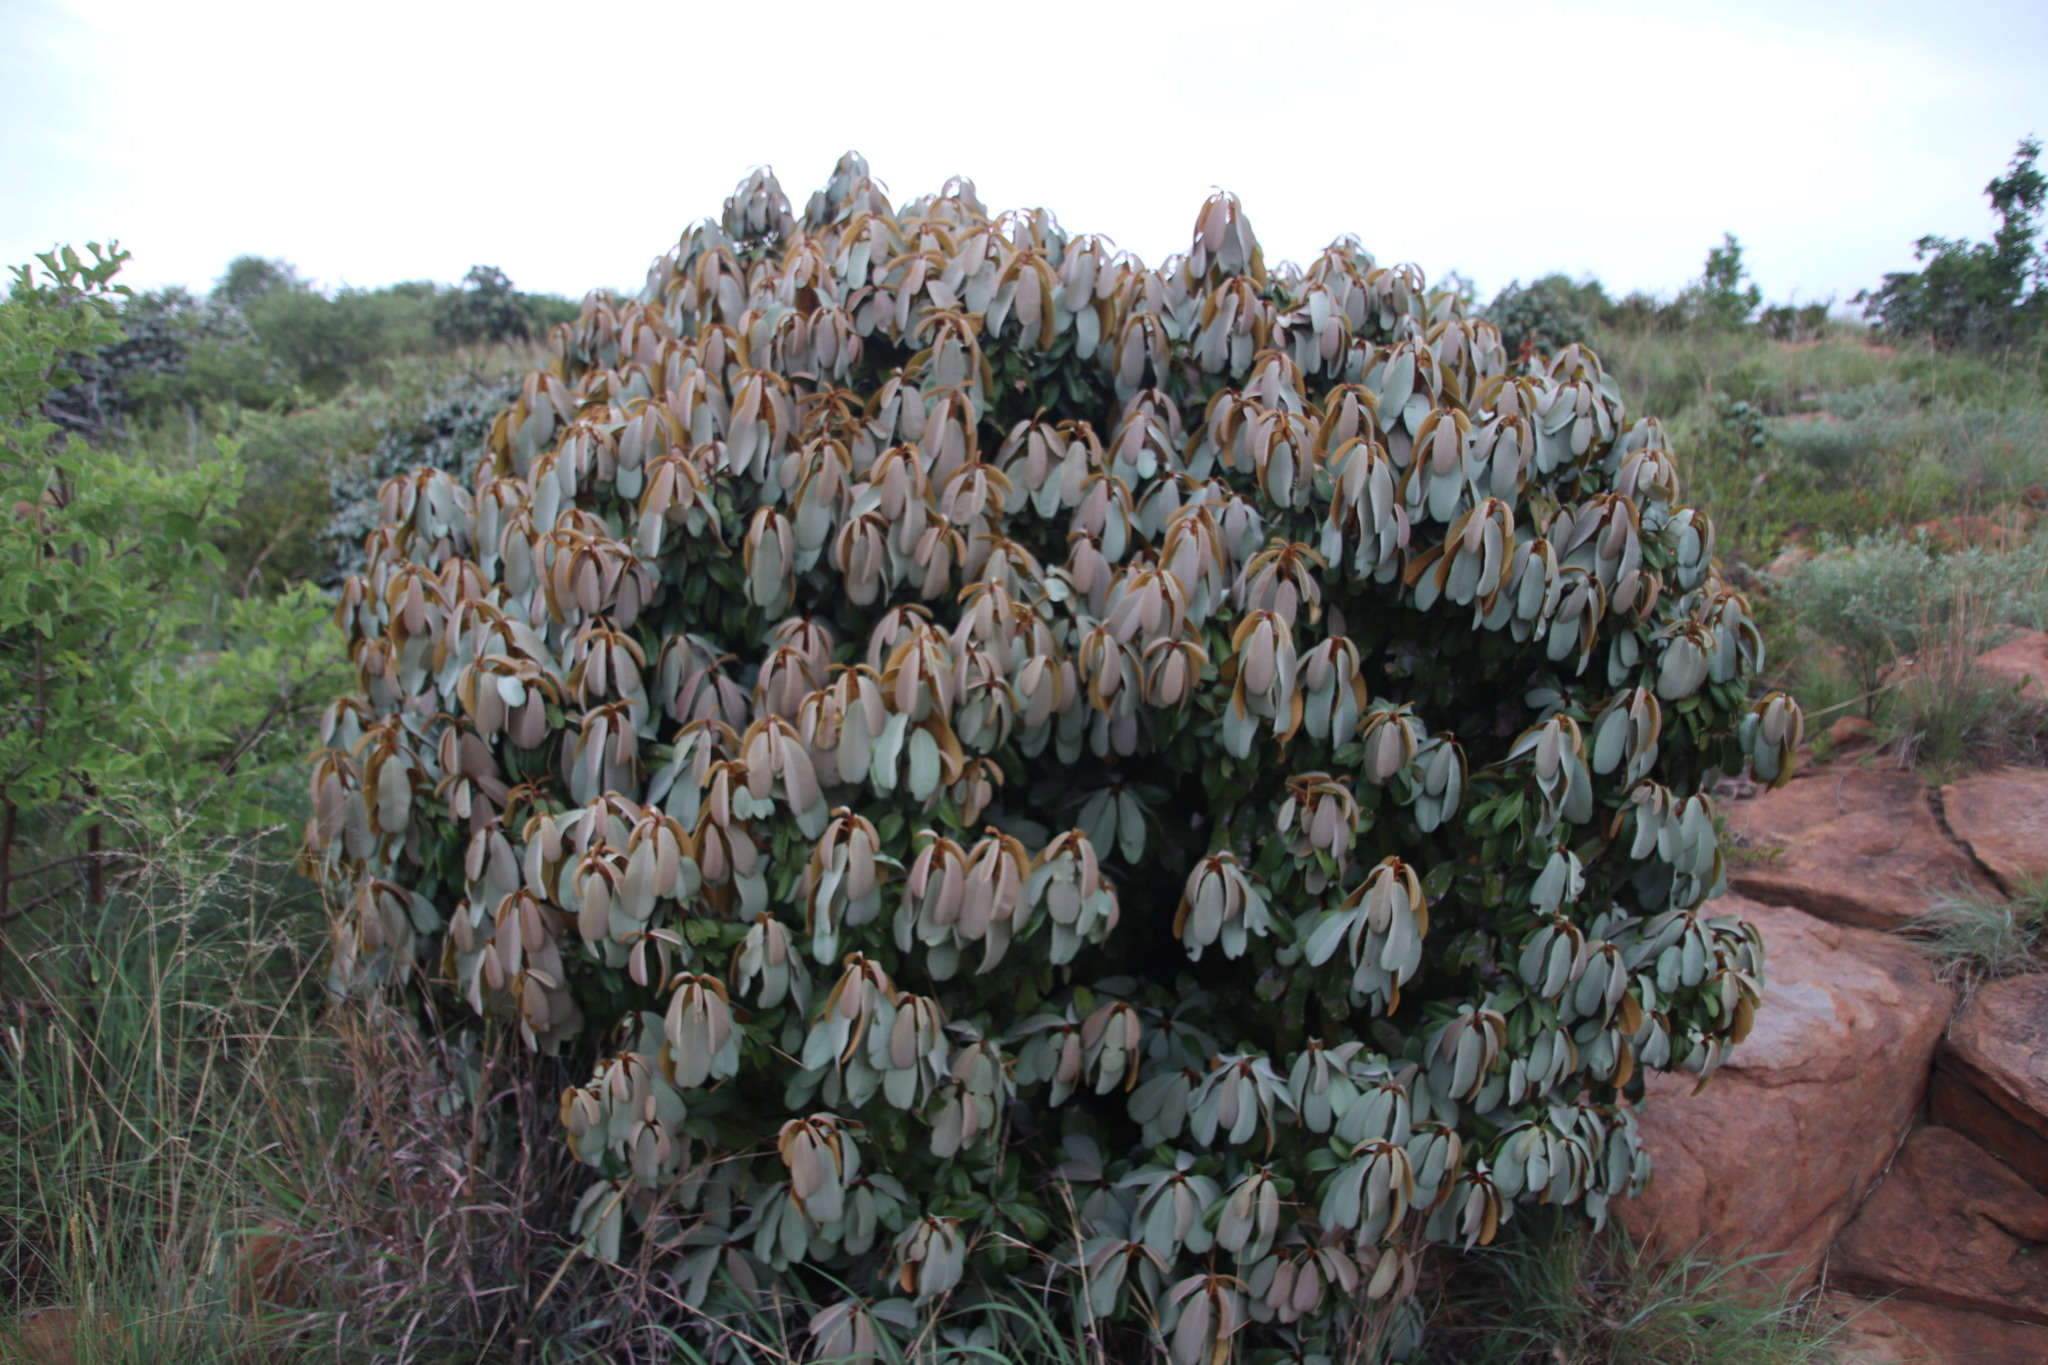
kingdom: Plantae
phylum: Tracheophyta
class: Magnoliopsida
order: Ericales
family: Sapotaceae
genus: Englerophytum
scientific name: Englerophytum magalismontanum
